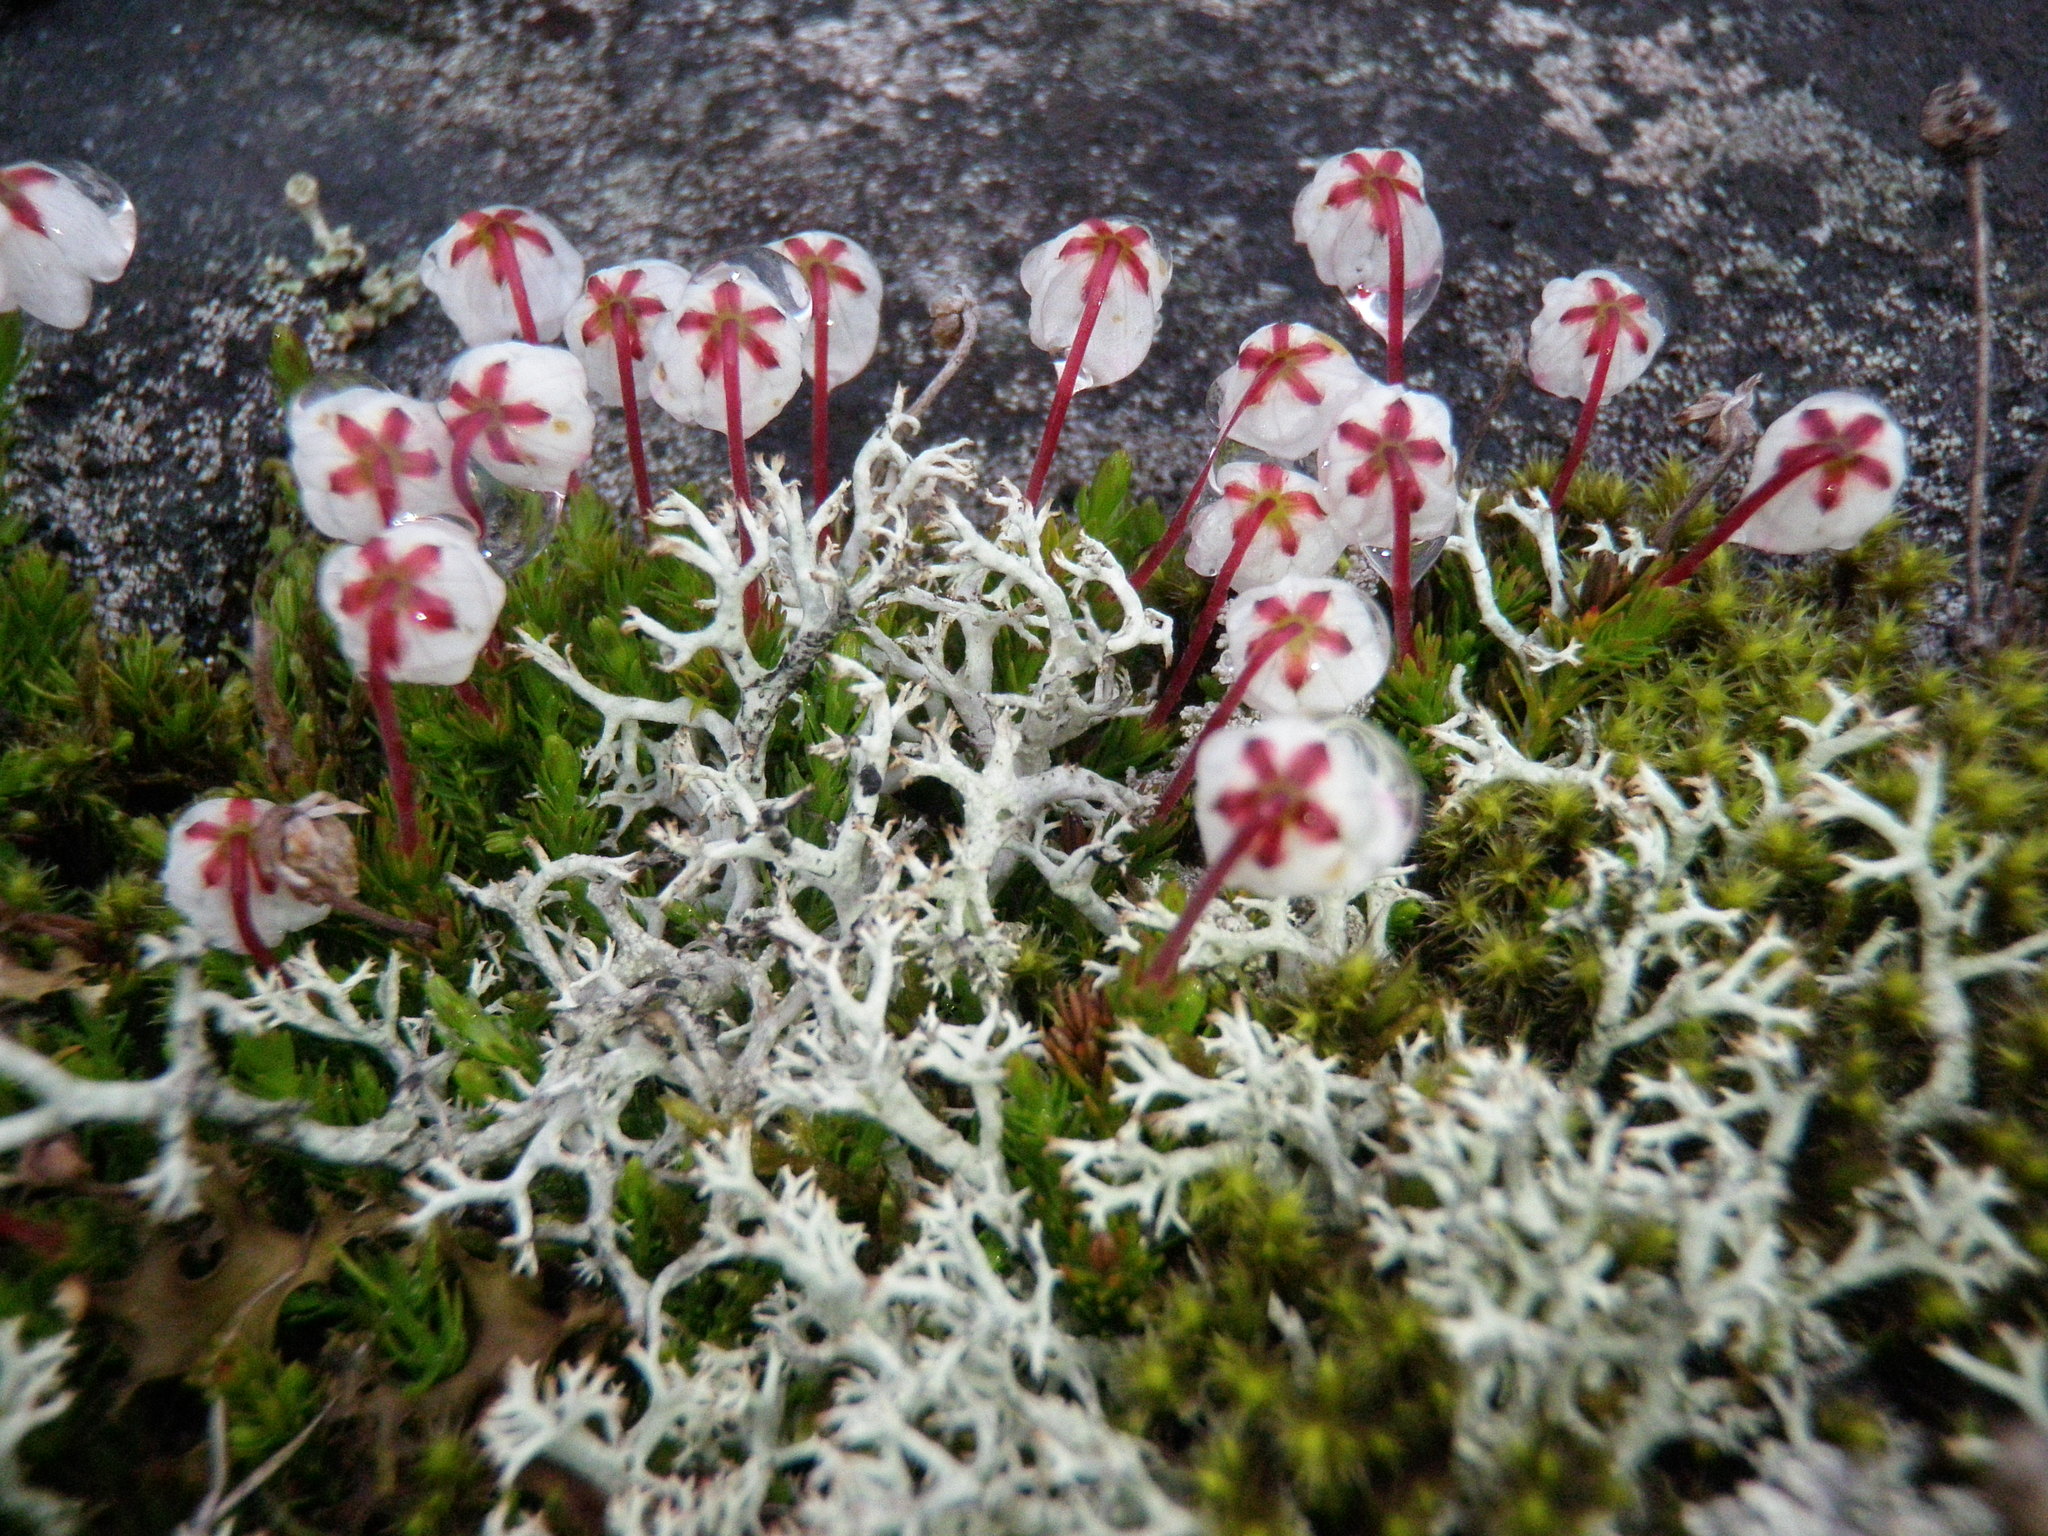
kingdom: Plantae
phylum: Tracheophyta
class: Magnoliopsida
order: Ericales
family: Ericaceae
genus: Harrimanella
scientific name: Harrimanella hypnoides
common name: Moss bell heather
